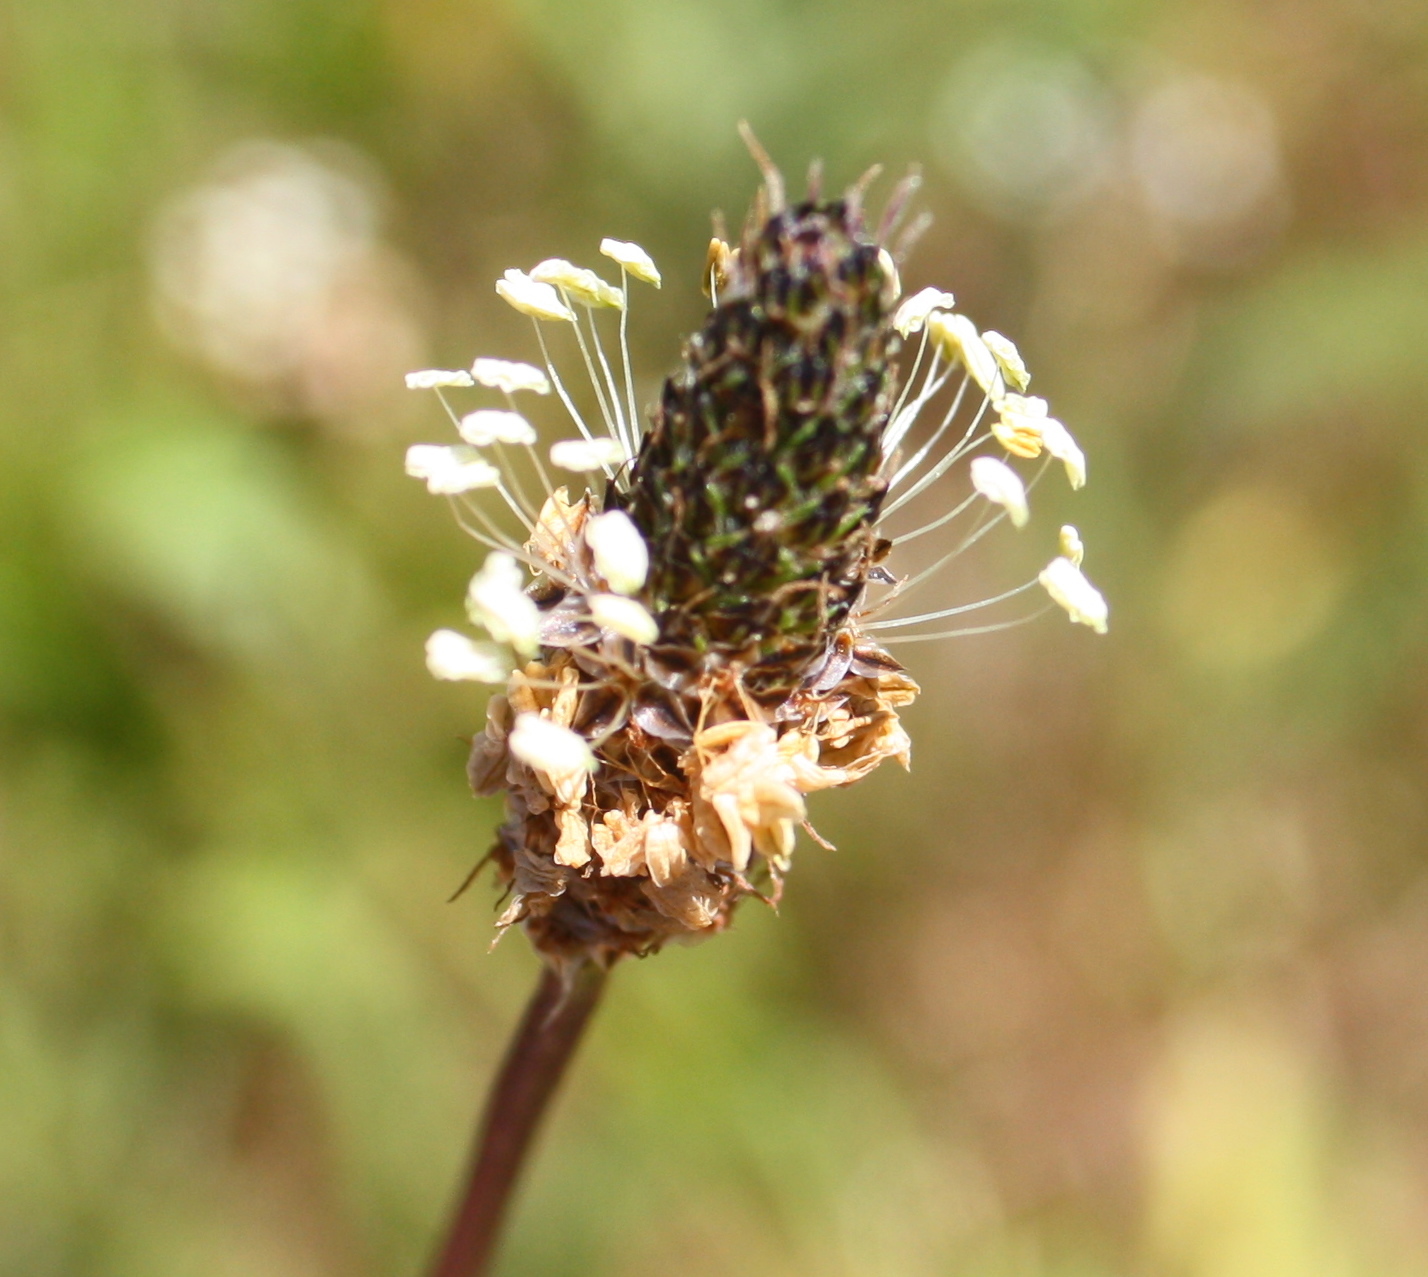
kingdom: Plantae
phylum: Tracheophyta
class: Magnoliopsida
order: Lamiales
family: Plantaginaceae
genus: Plantago
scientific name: Plantago lanceolata
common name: Ribwort plantain
